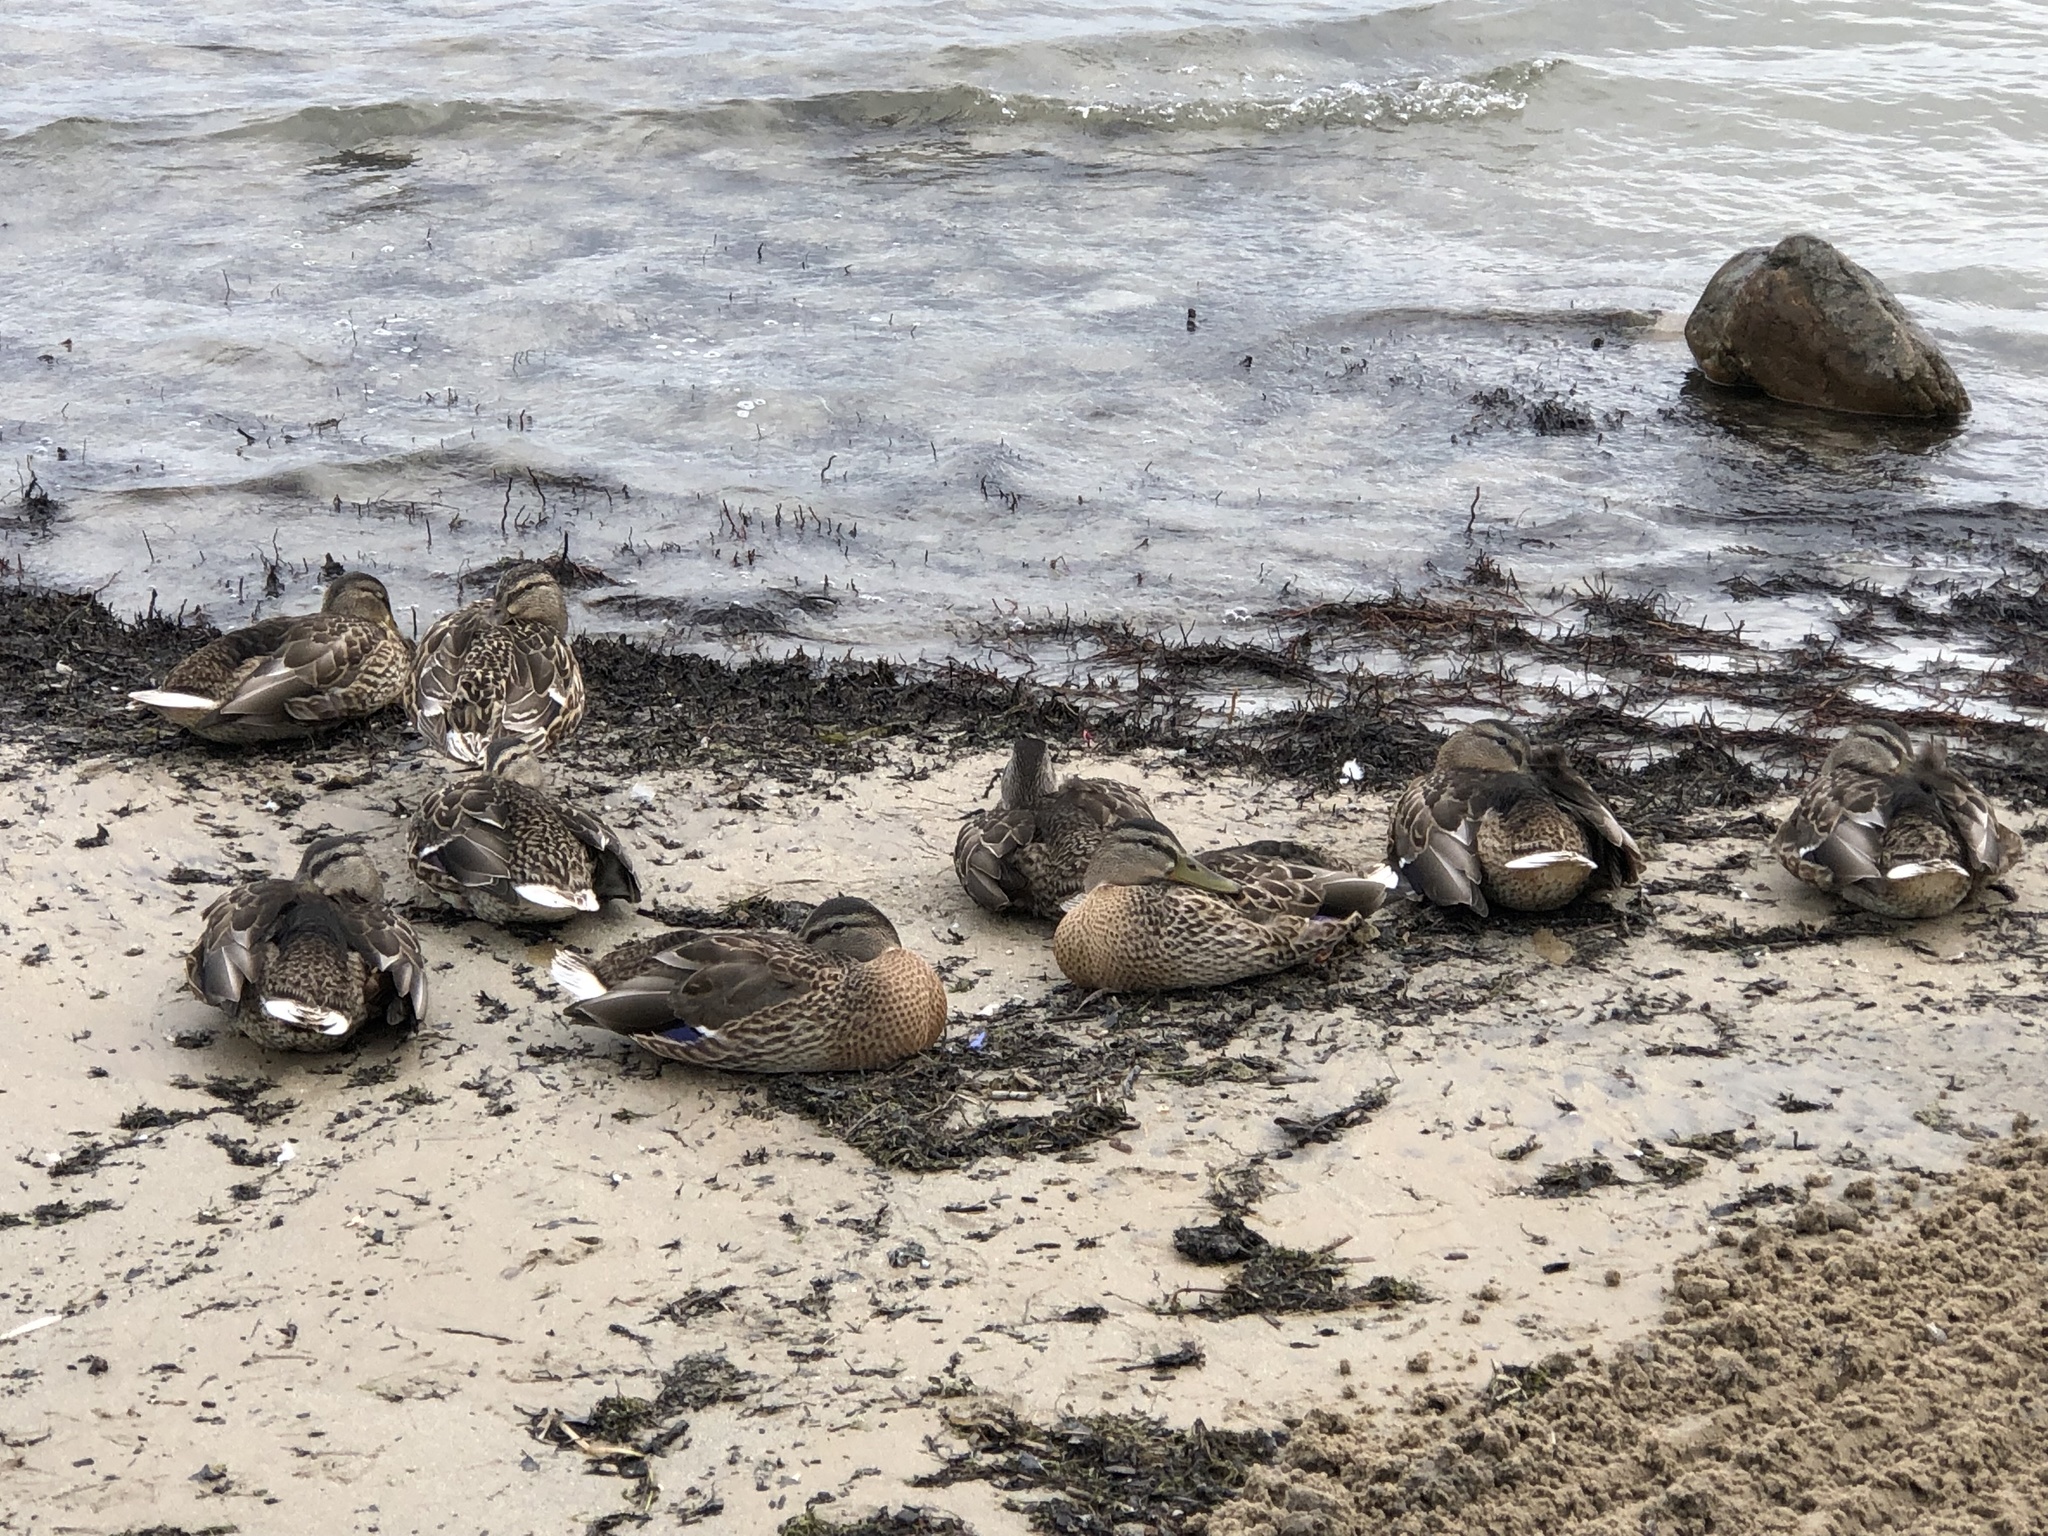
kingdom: Animalia
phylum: Chordata
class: Aves
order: Anseriformes
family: Anatidae
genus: Anas
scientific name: Anas platyrhynchos
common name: Mallard
